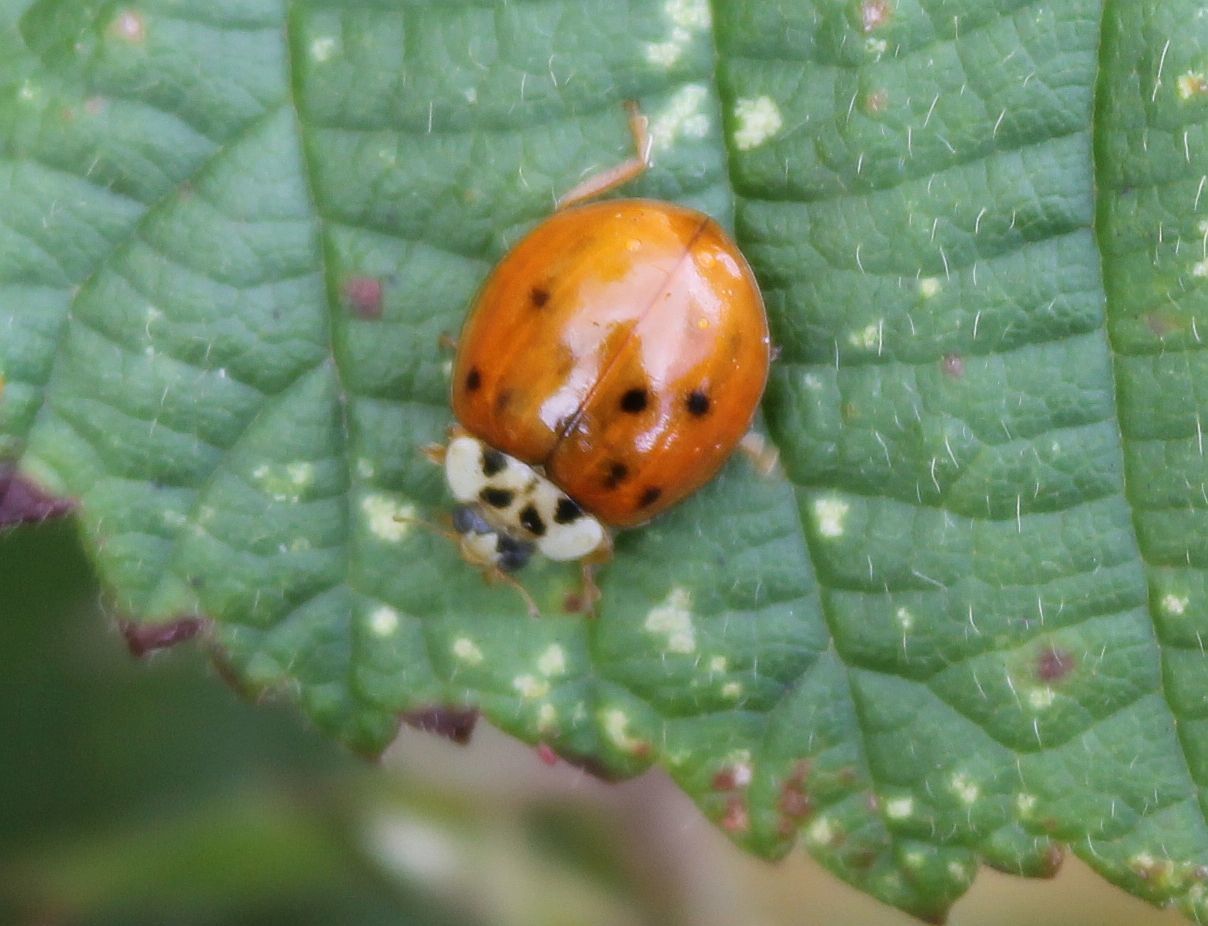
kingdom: Animalia
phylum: Arthropoda
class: Insecta
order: Coleoptera
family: Coccinellidae
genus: Harmonia
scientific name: Harmonia axyridis
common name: Harlequin ladybird
